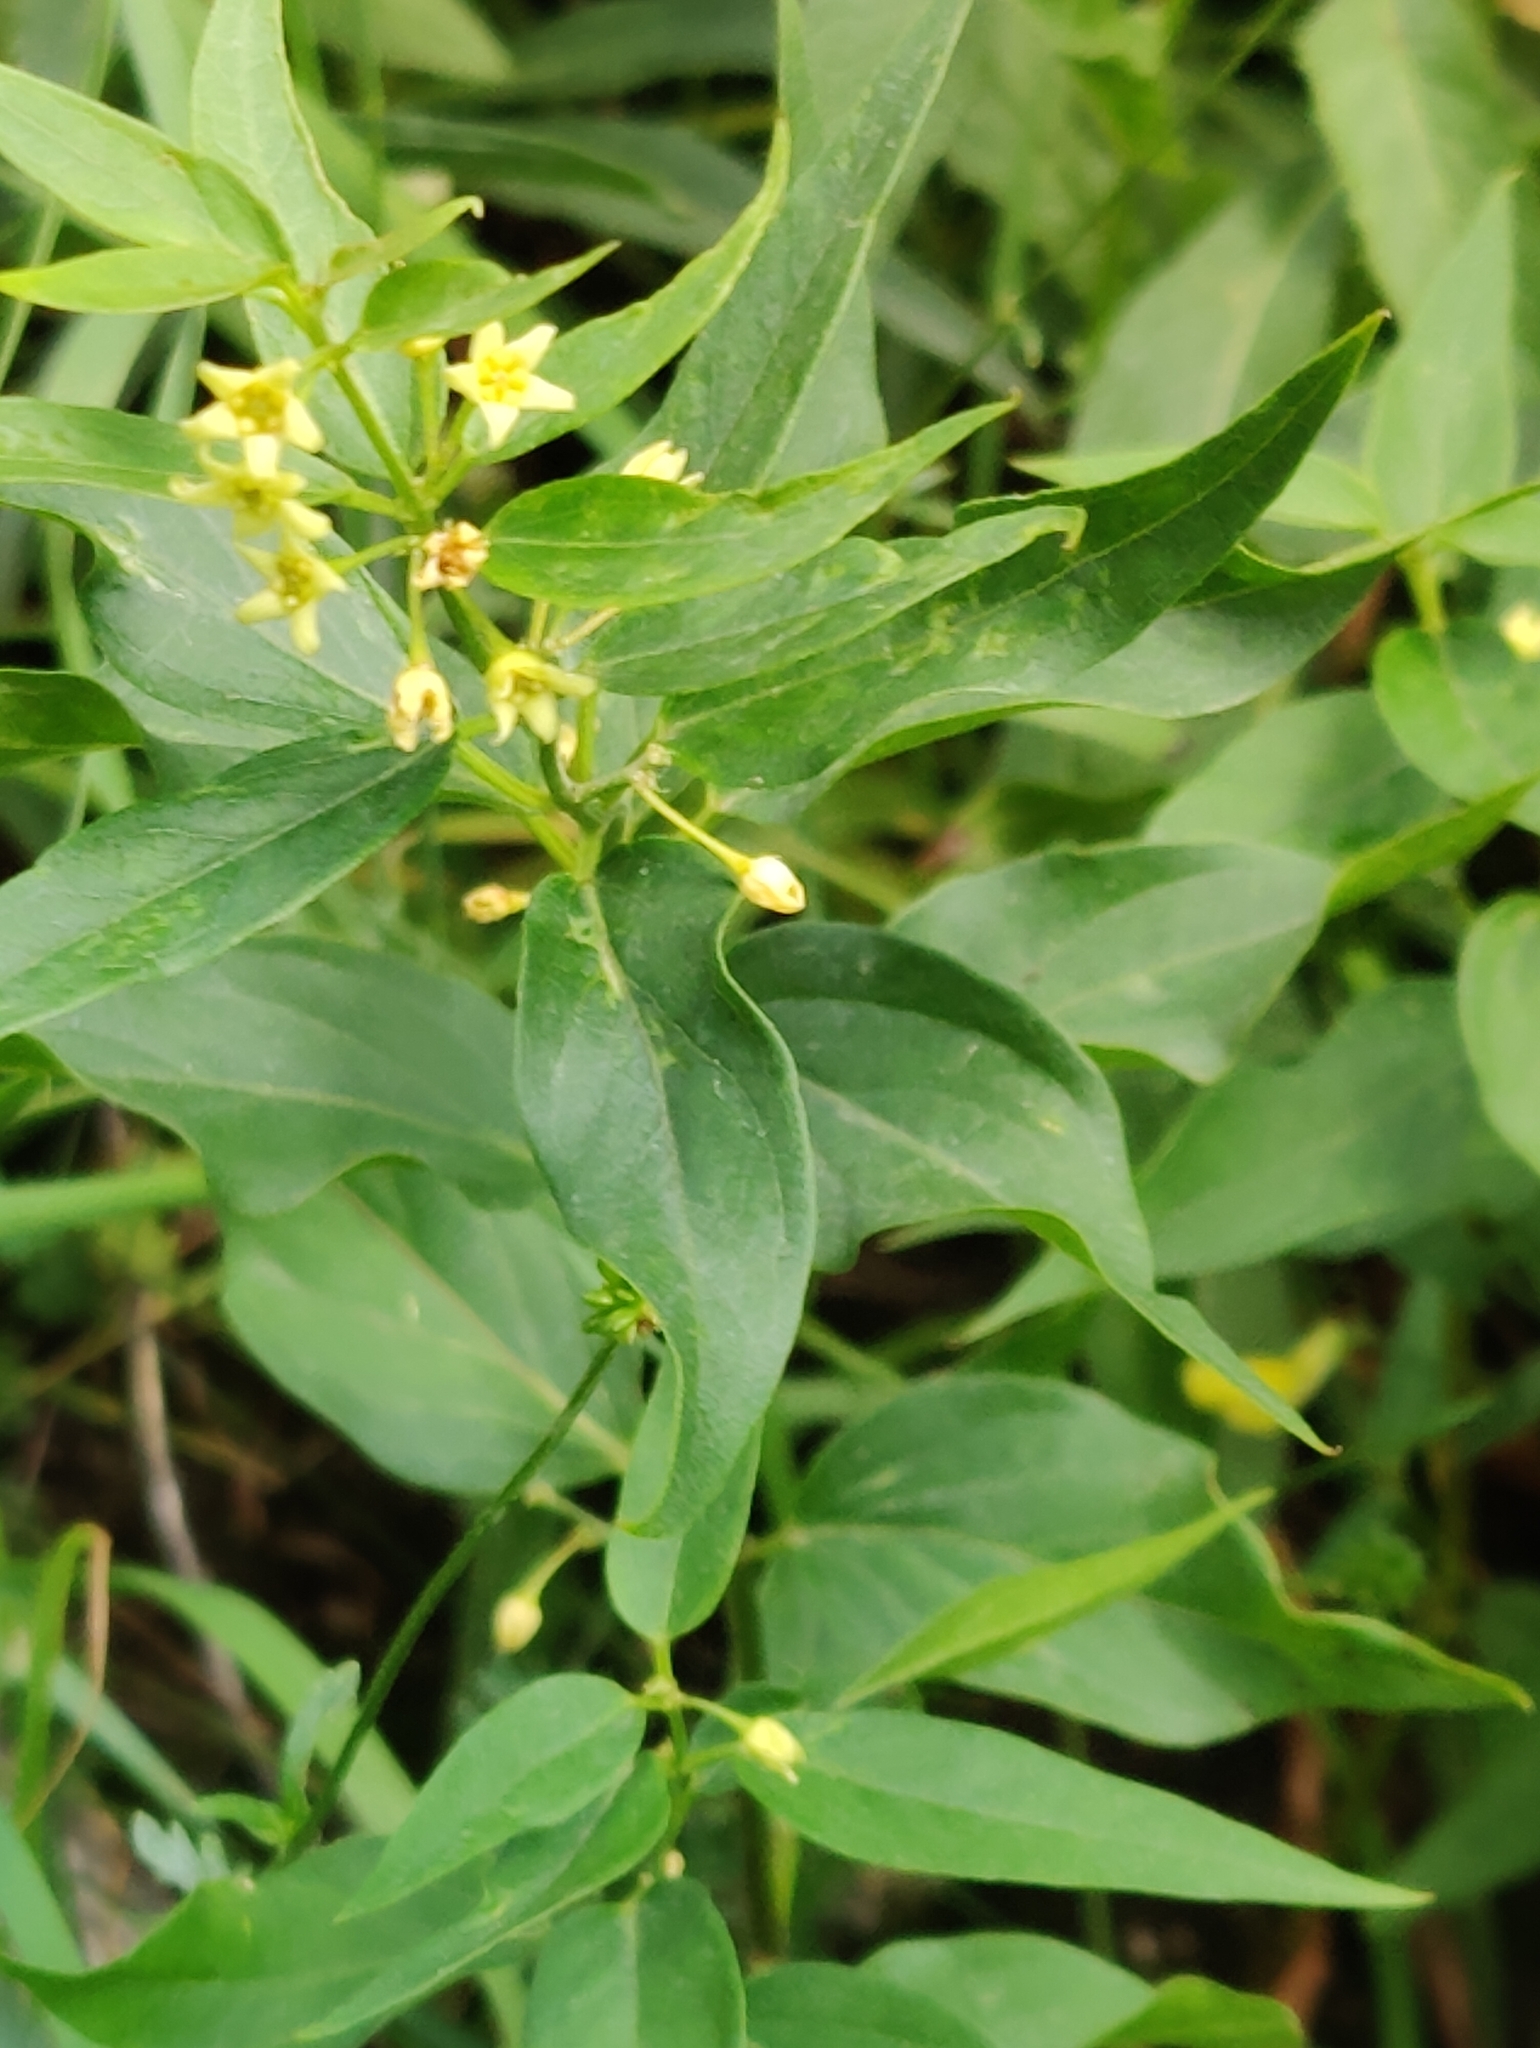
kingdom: Plantae
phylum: Tracheophyta
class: Magnoliopsida
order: Gentianales
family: Apocynaceae
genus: Vincetoxicum
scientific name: Vincetoxicum hirundinaria
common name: White swallowwort
